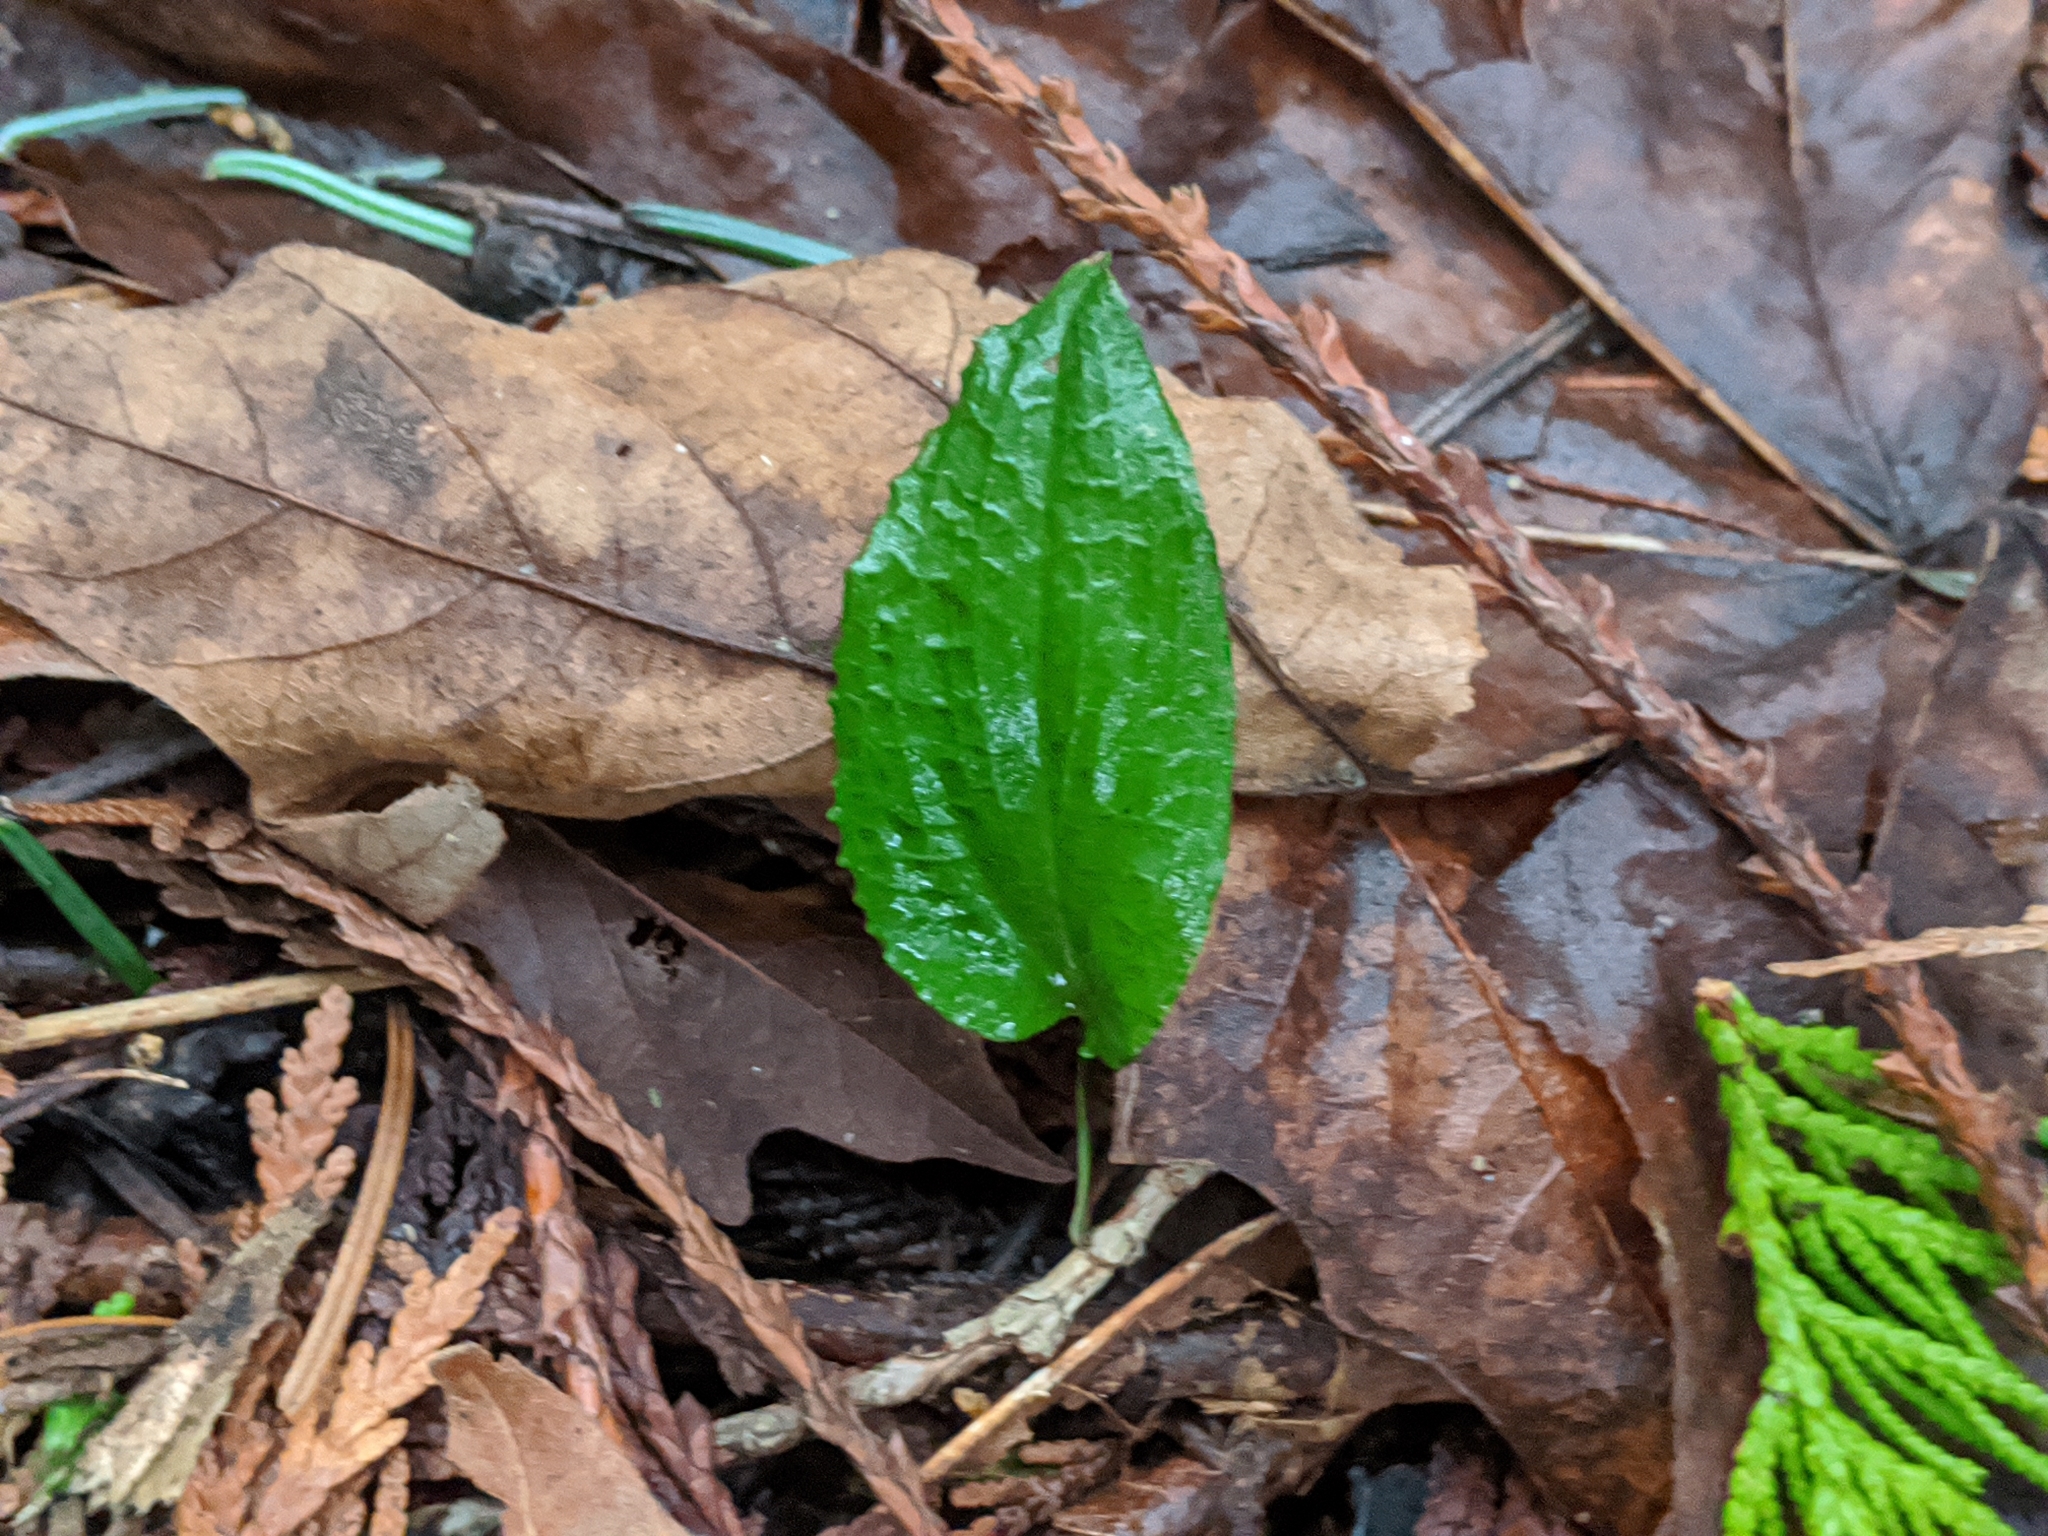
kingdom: Plantae
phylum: Tracheophyta
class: Liliopsida
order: Asparagales
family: Orchidaceae
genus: Calypso
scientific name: Calypso bulbosa
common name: Calypso
